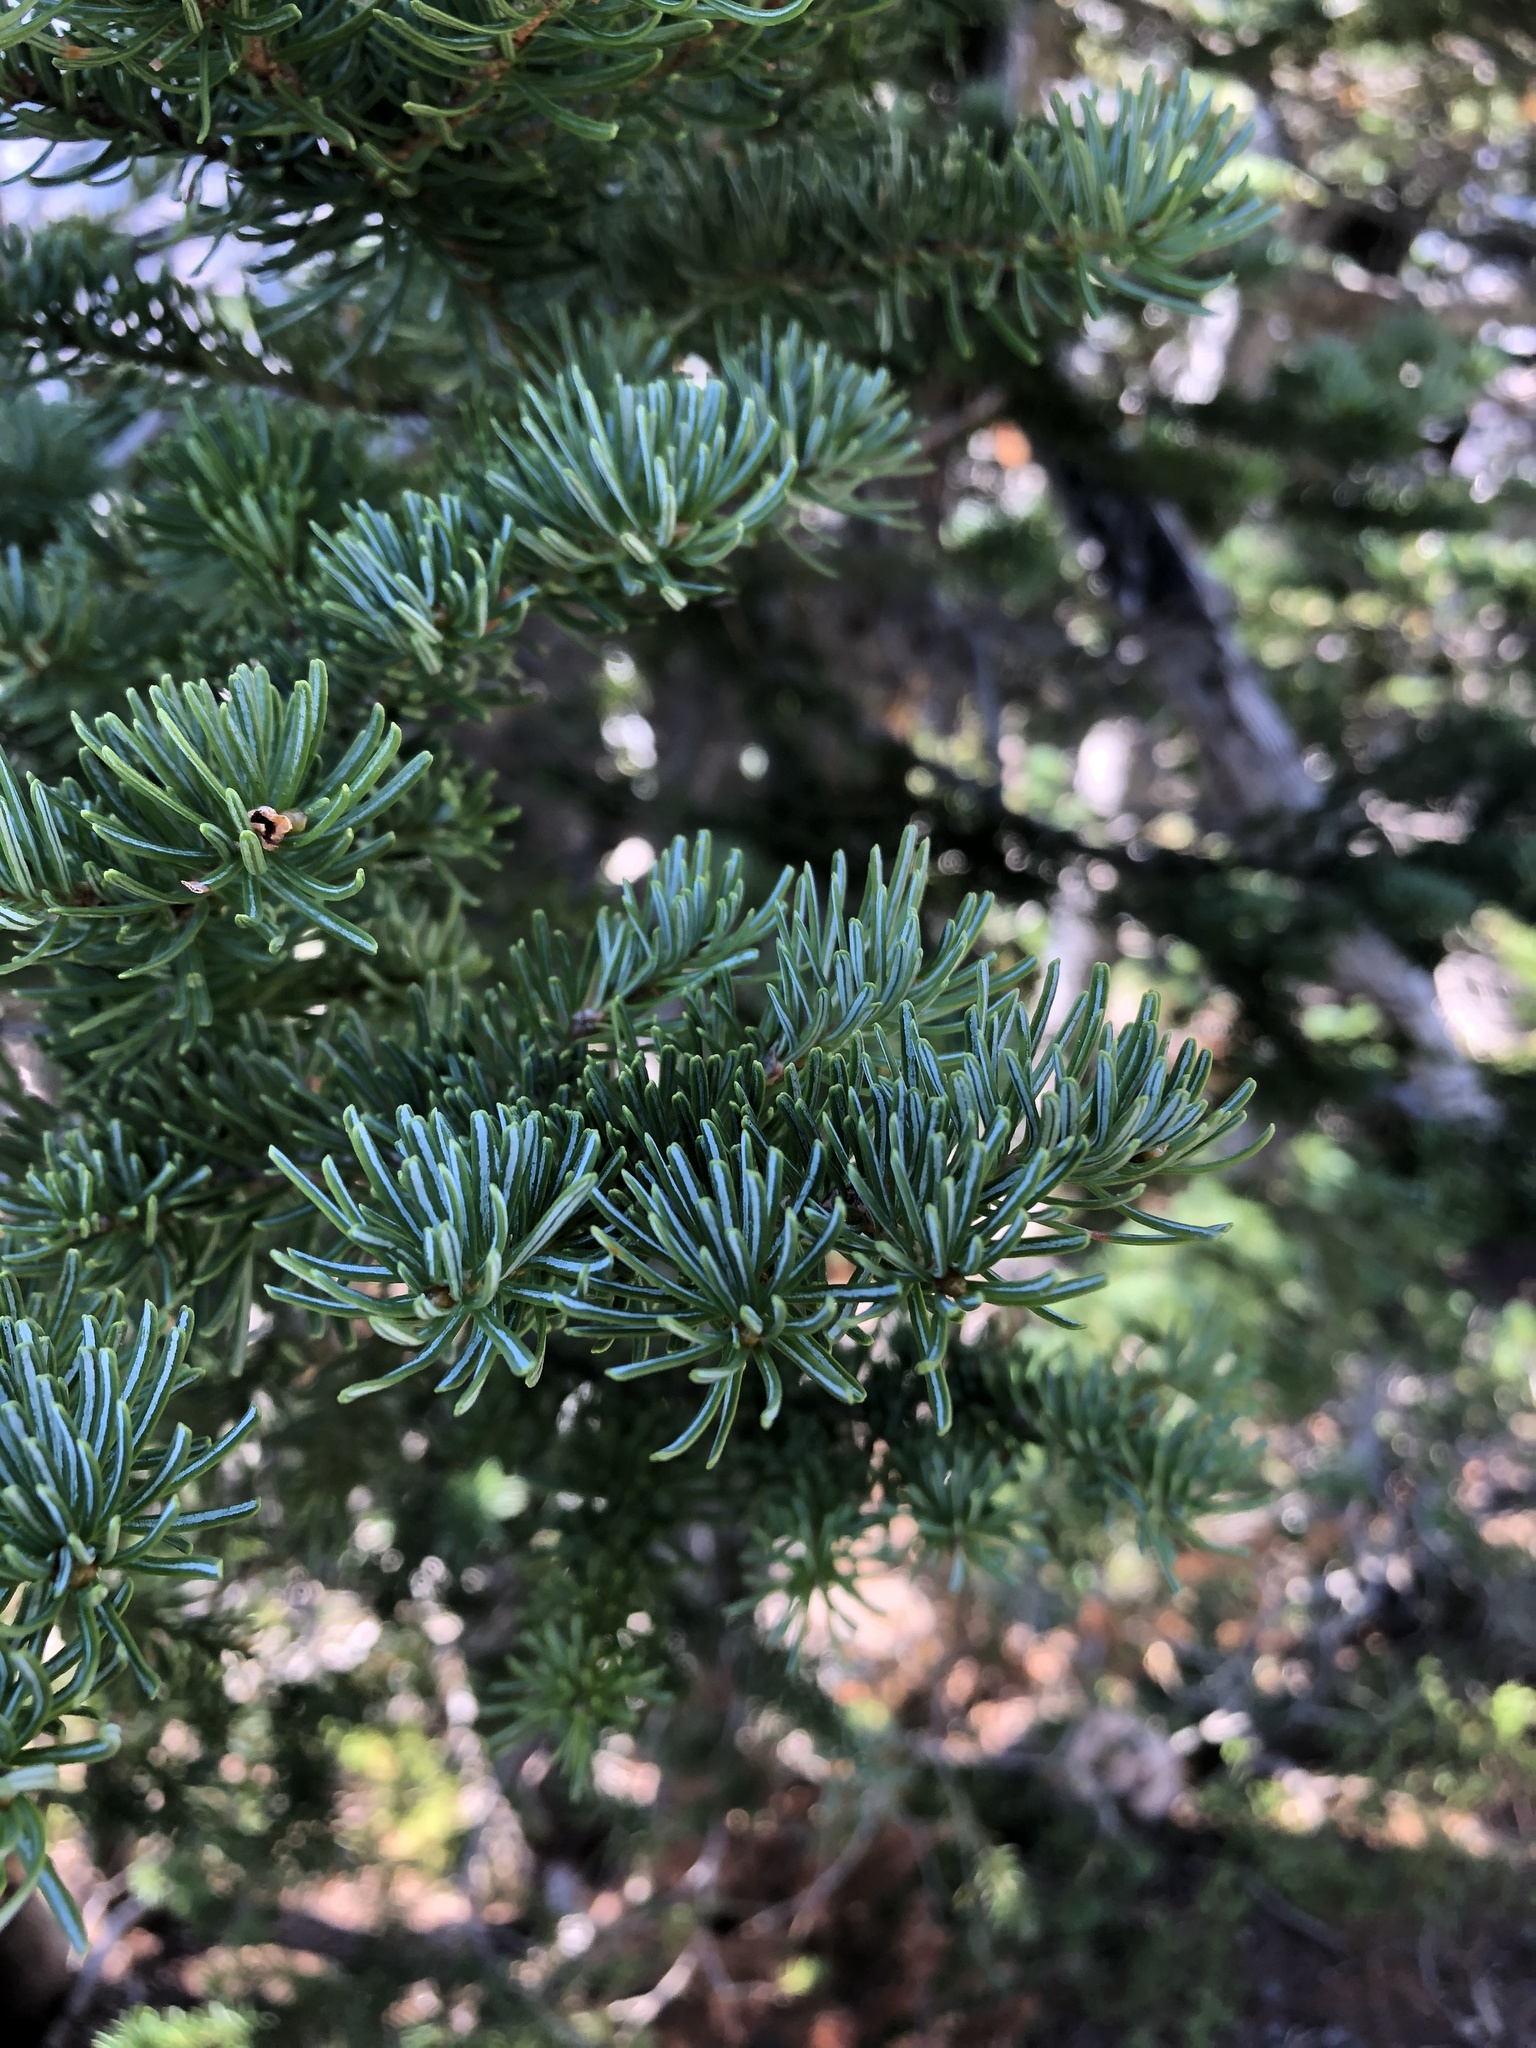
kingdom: Plantae
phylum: Tracheophyta
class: Pinopsida
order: Pinales
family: Pinaceae
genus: Abies
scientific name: Abies lasiocarpa
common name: Subalpine fir
